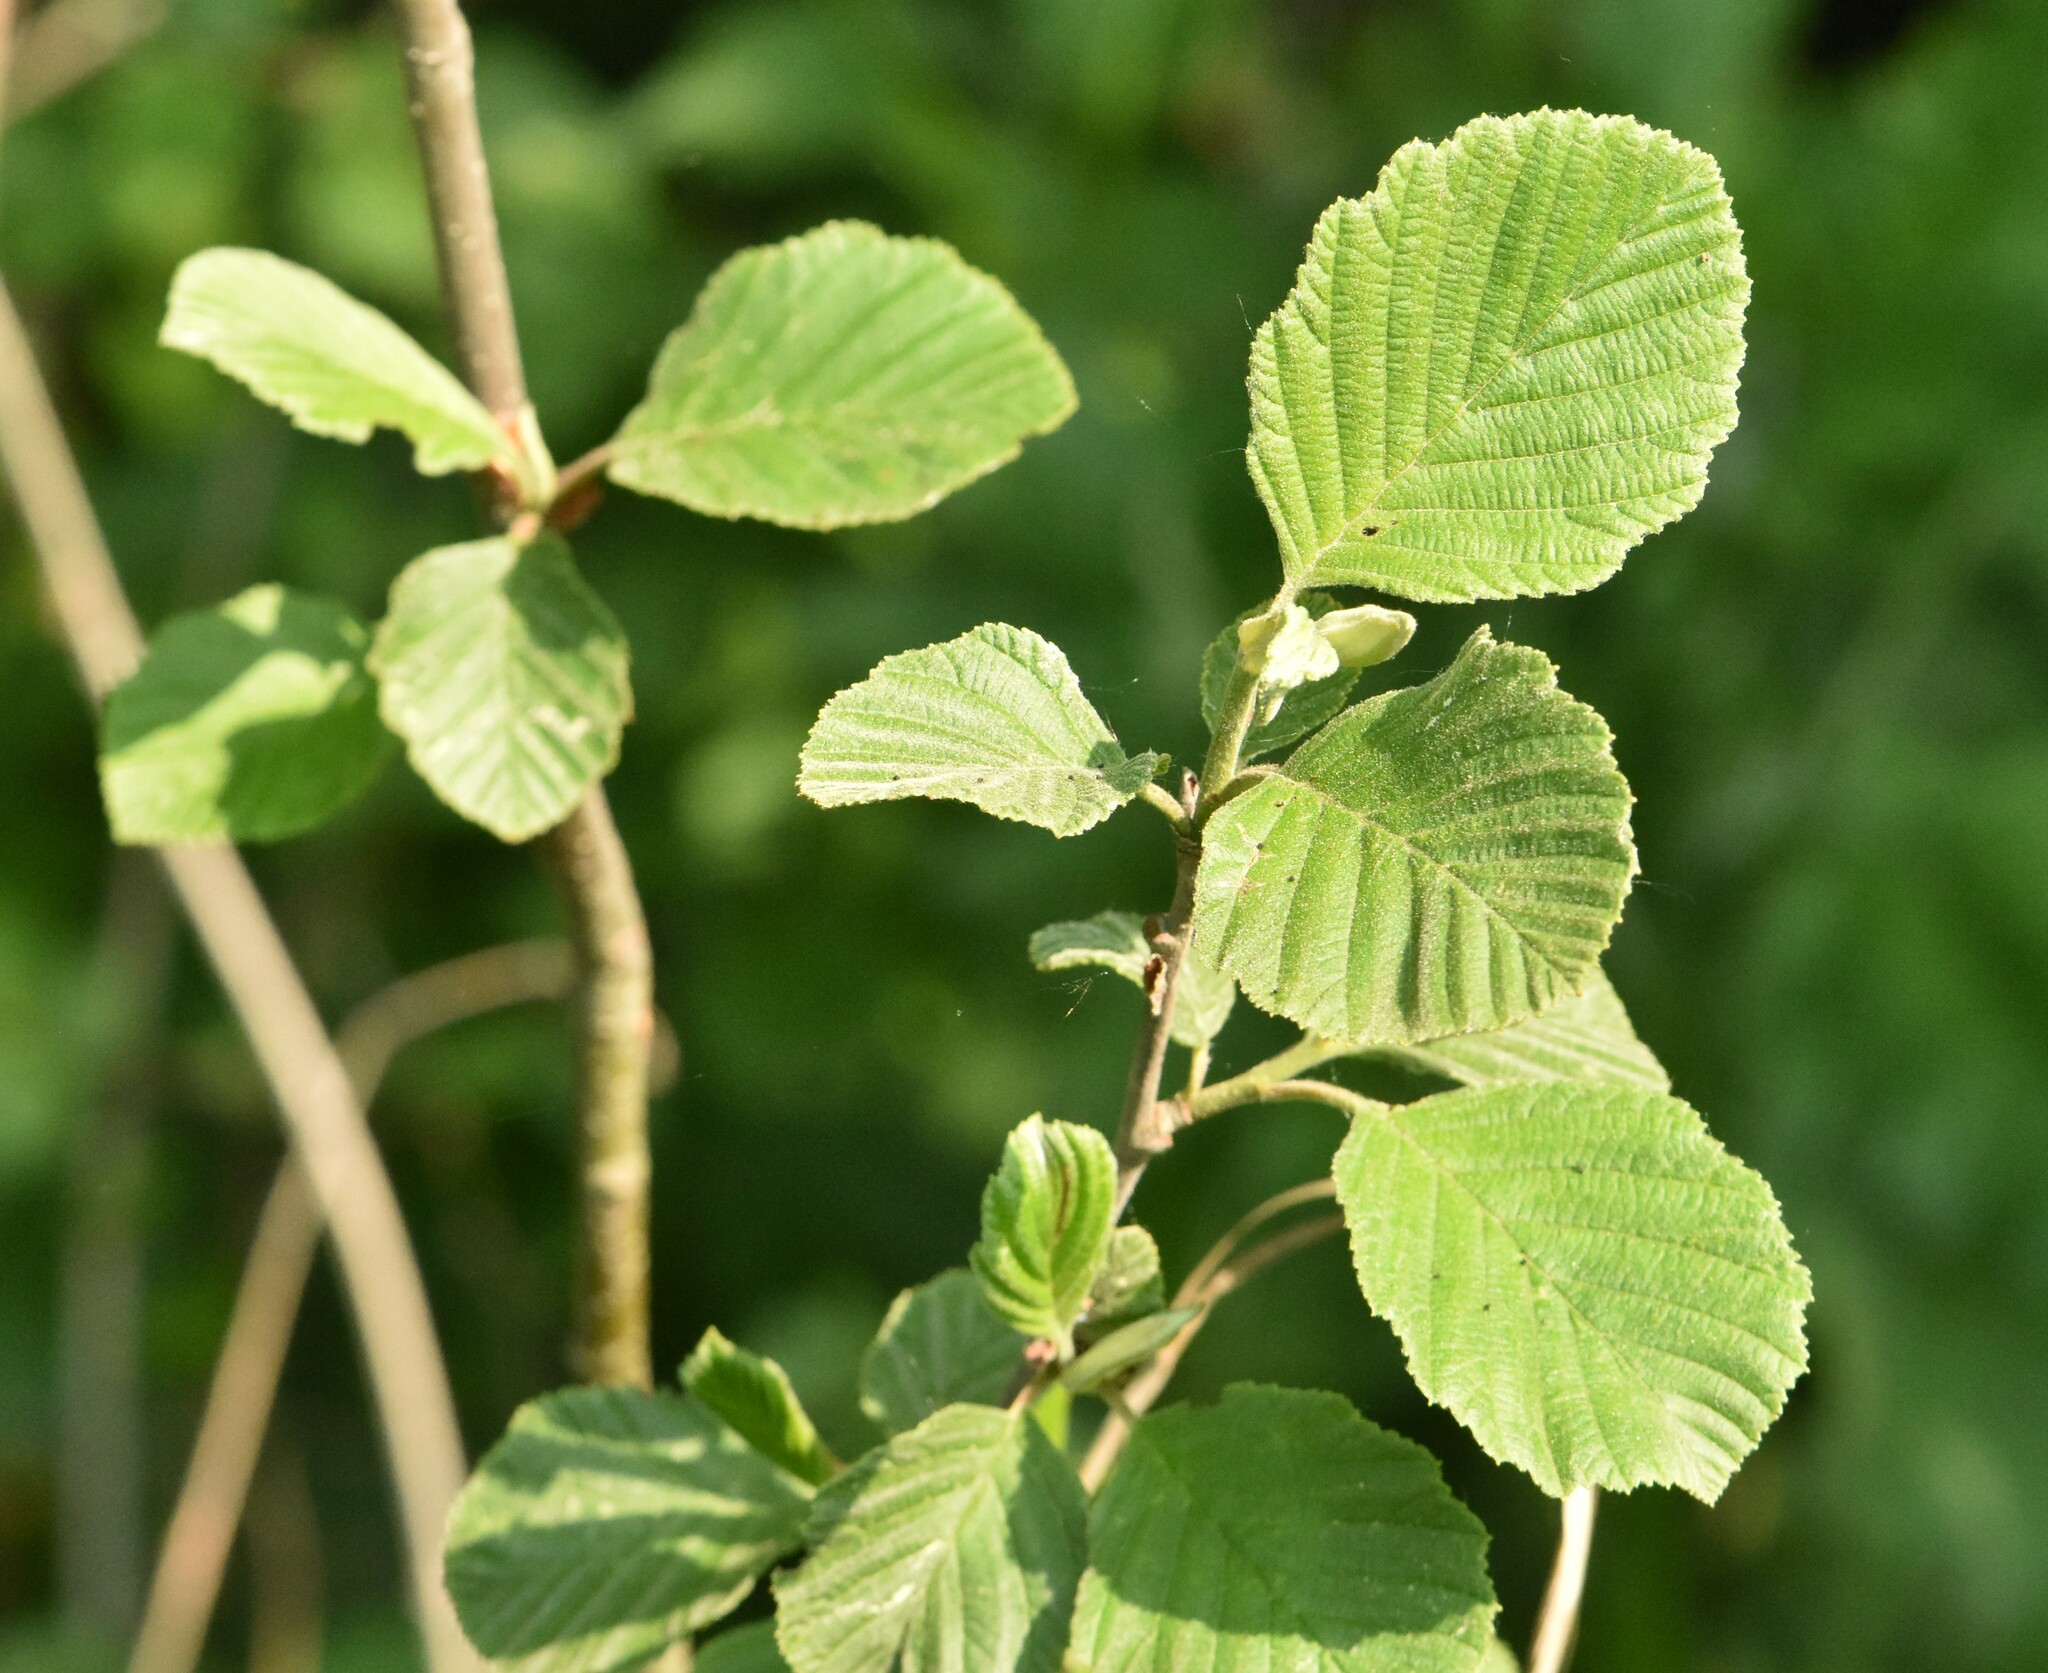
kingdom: Plantae
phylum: Tracheophyta
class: Magnoliopsida
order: Fagales
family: Betulaceae
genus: Alnus
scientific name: Alnus incana
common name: Grey alder
